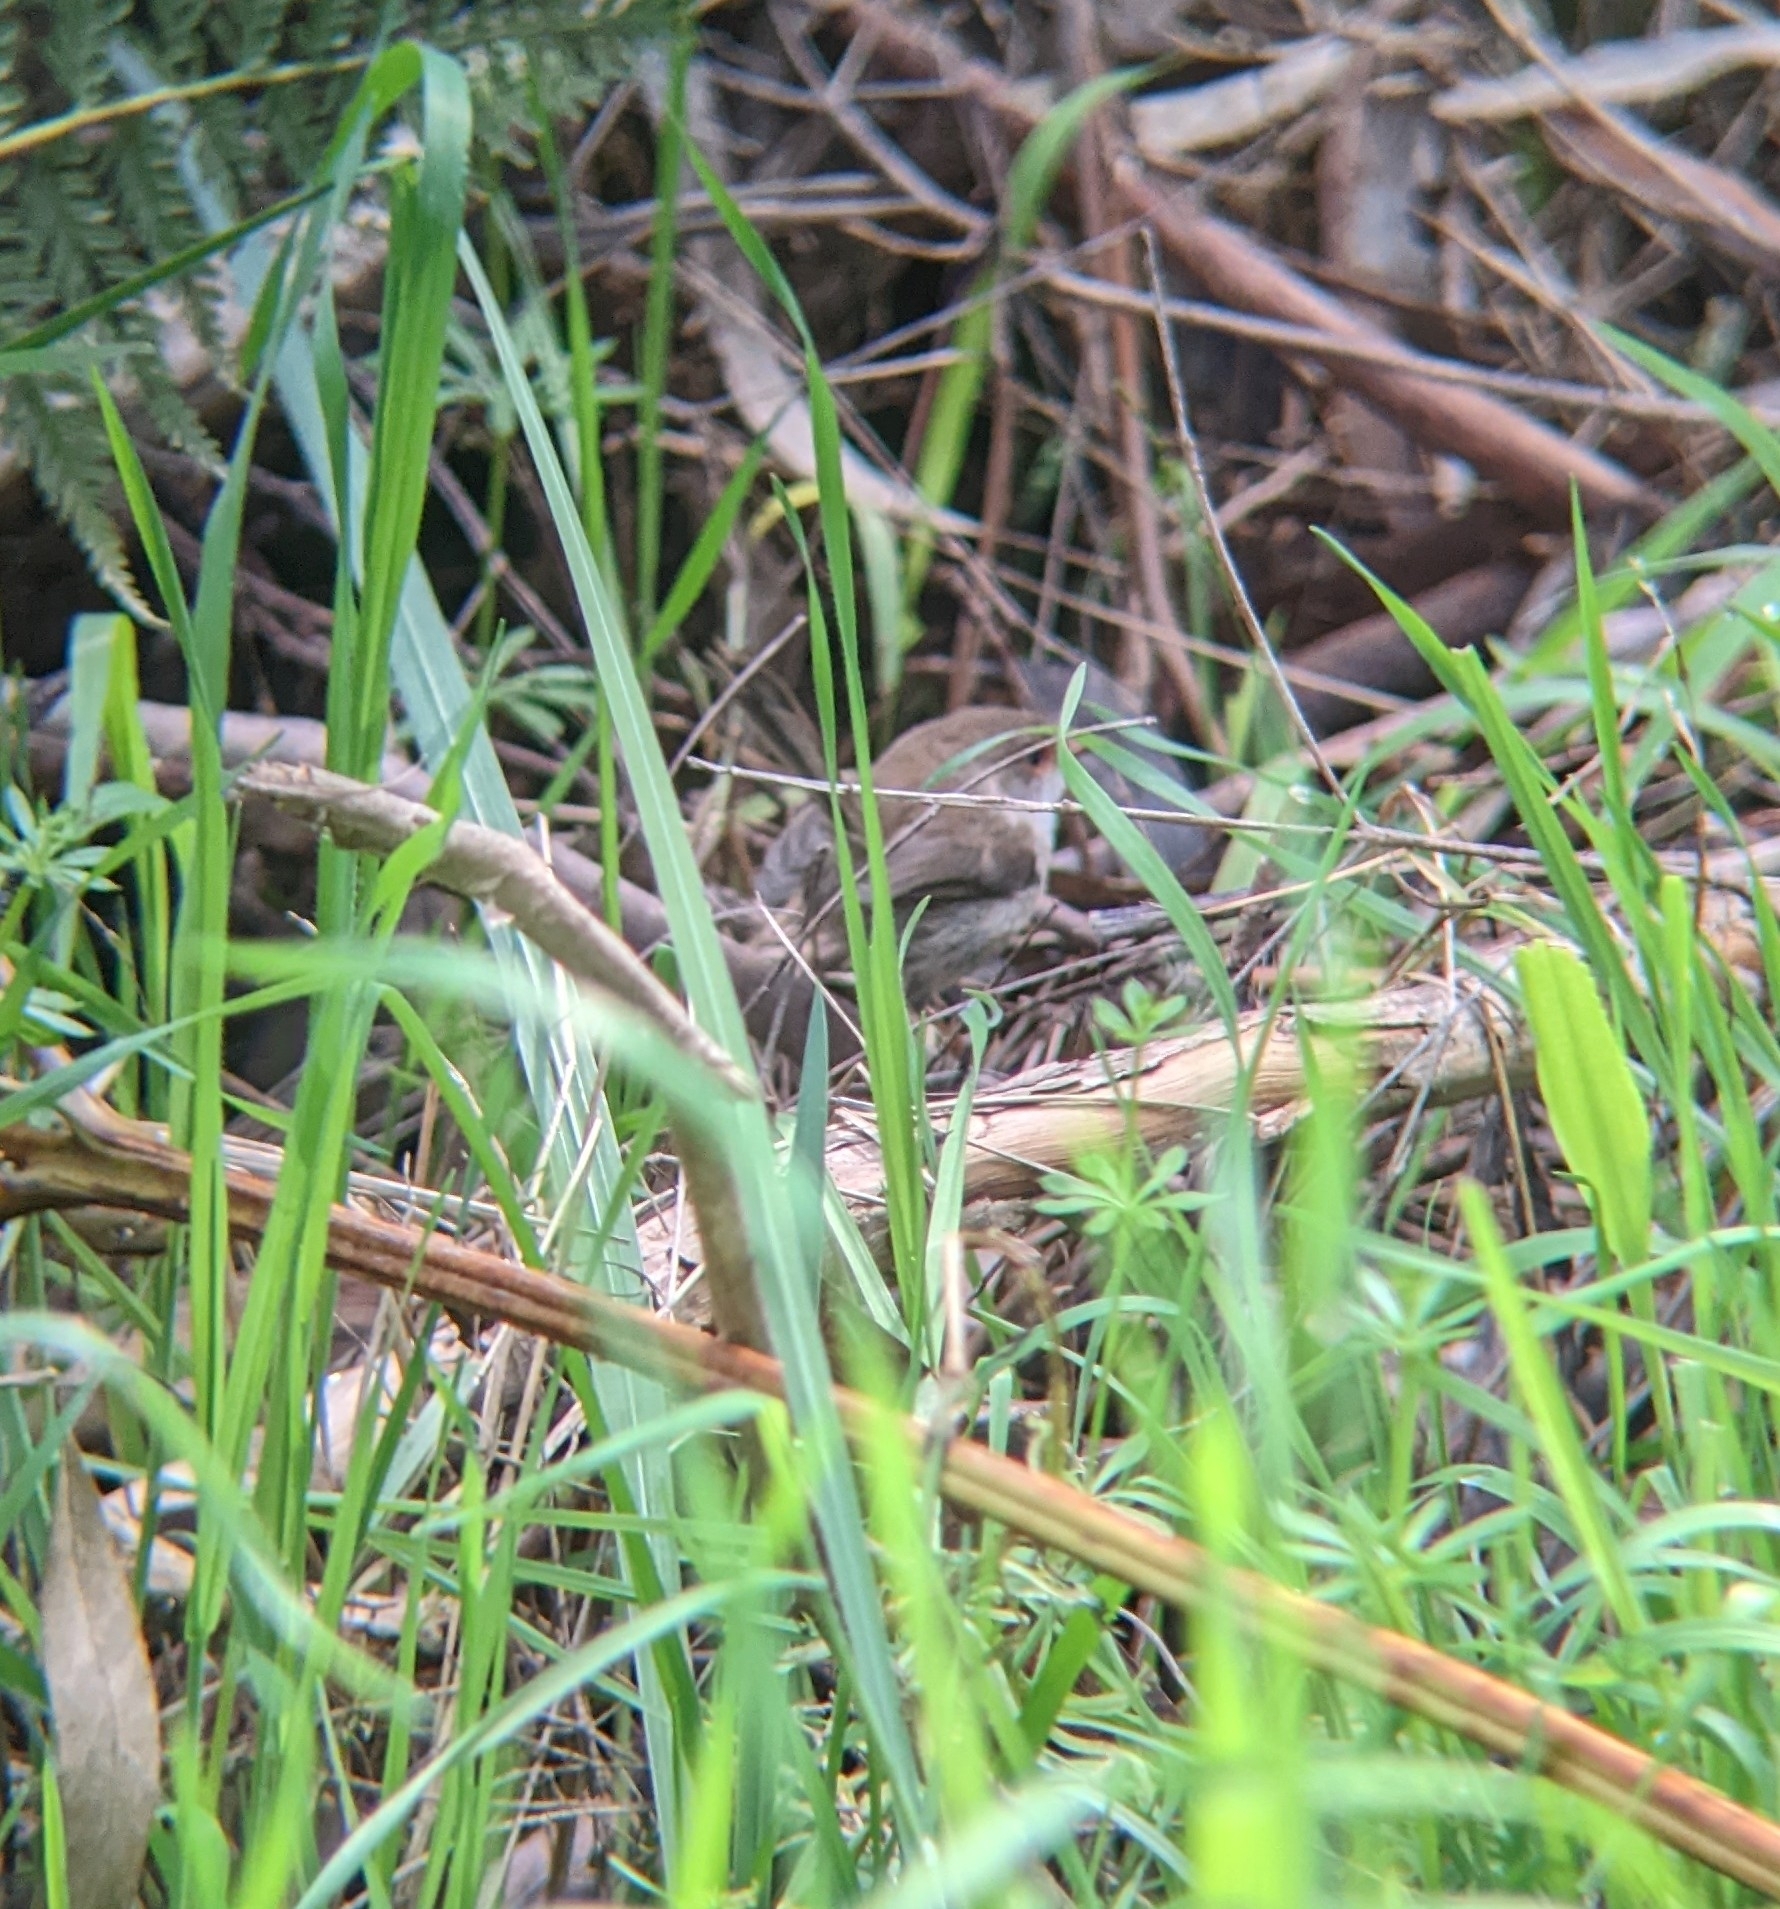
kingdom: Animalia
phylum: Chordata
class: Aves
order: Passeriformes
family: Maluridae
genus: Malurus
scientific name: Malurus cyaneus
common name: Superb fairywren
